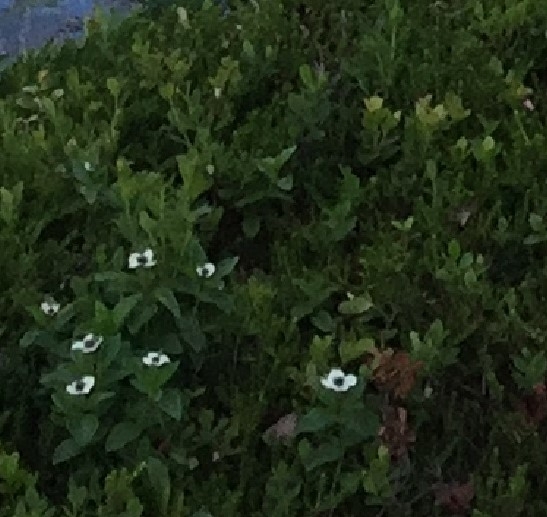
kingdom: Plantae
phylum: Tracheophyta
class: Magnoliopsida
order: Cornales
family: Cornaceae
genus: Cornus
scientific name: Cornus suecica
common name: Dwarf cornel
